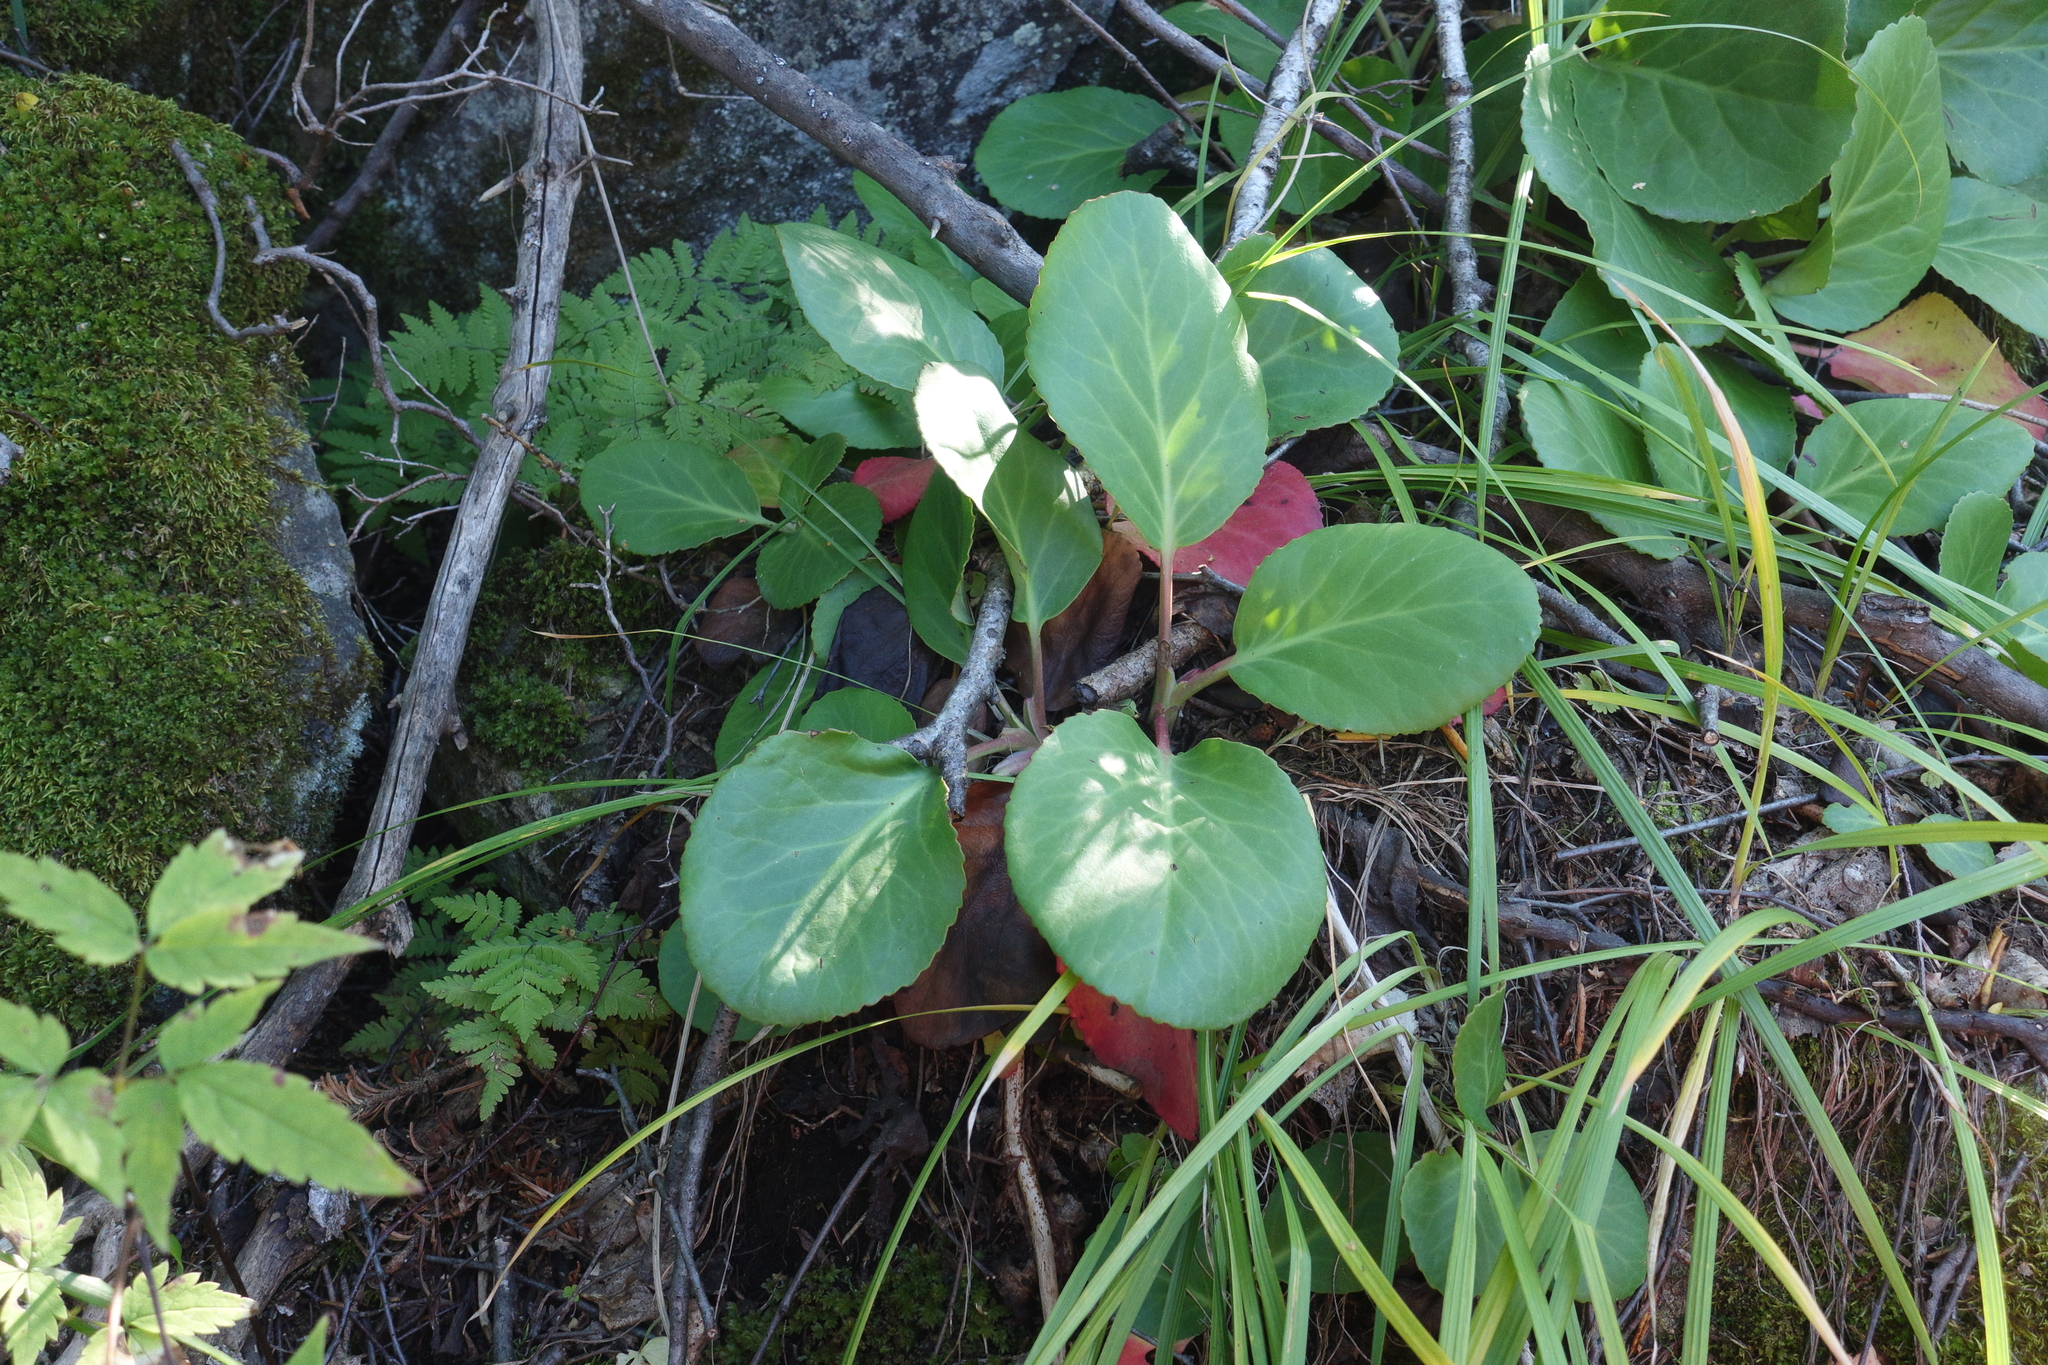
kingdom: Plantae
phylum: Tracheophyta
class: Magnoliopsida
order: Saxifragales
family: Saxifragaceae
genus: Bergenia
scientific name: Bergenia crassifolia
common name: Elephant-ears
